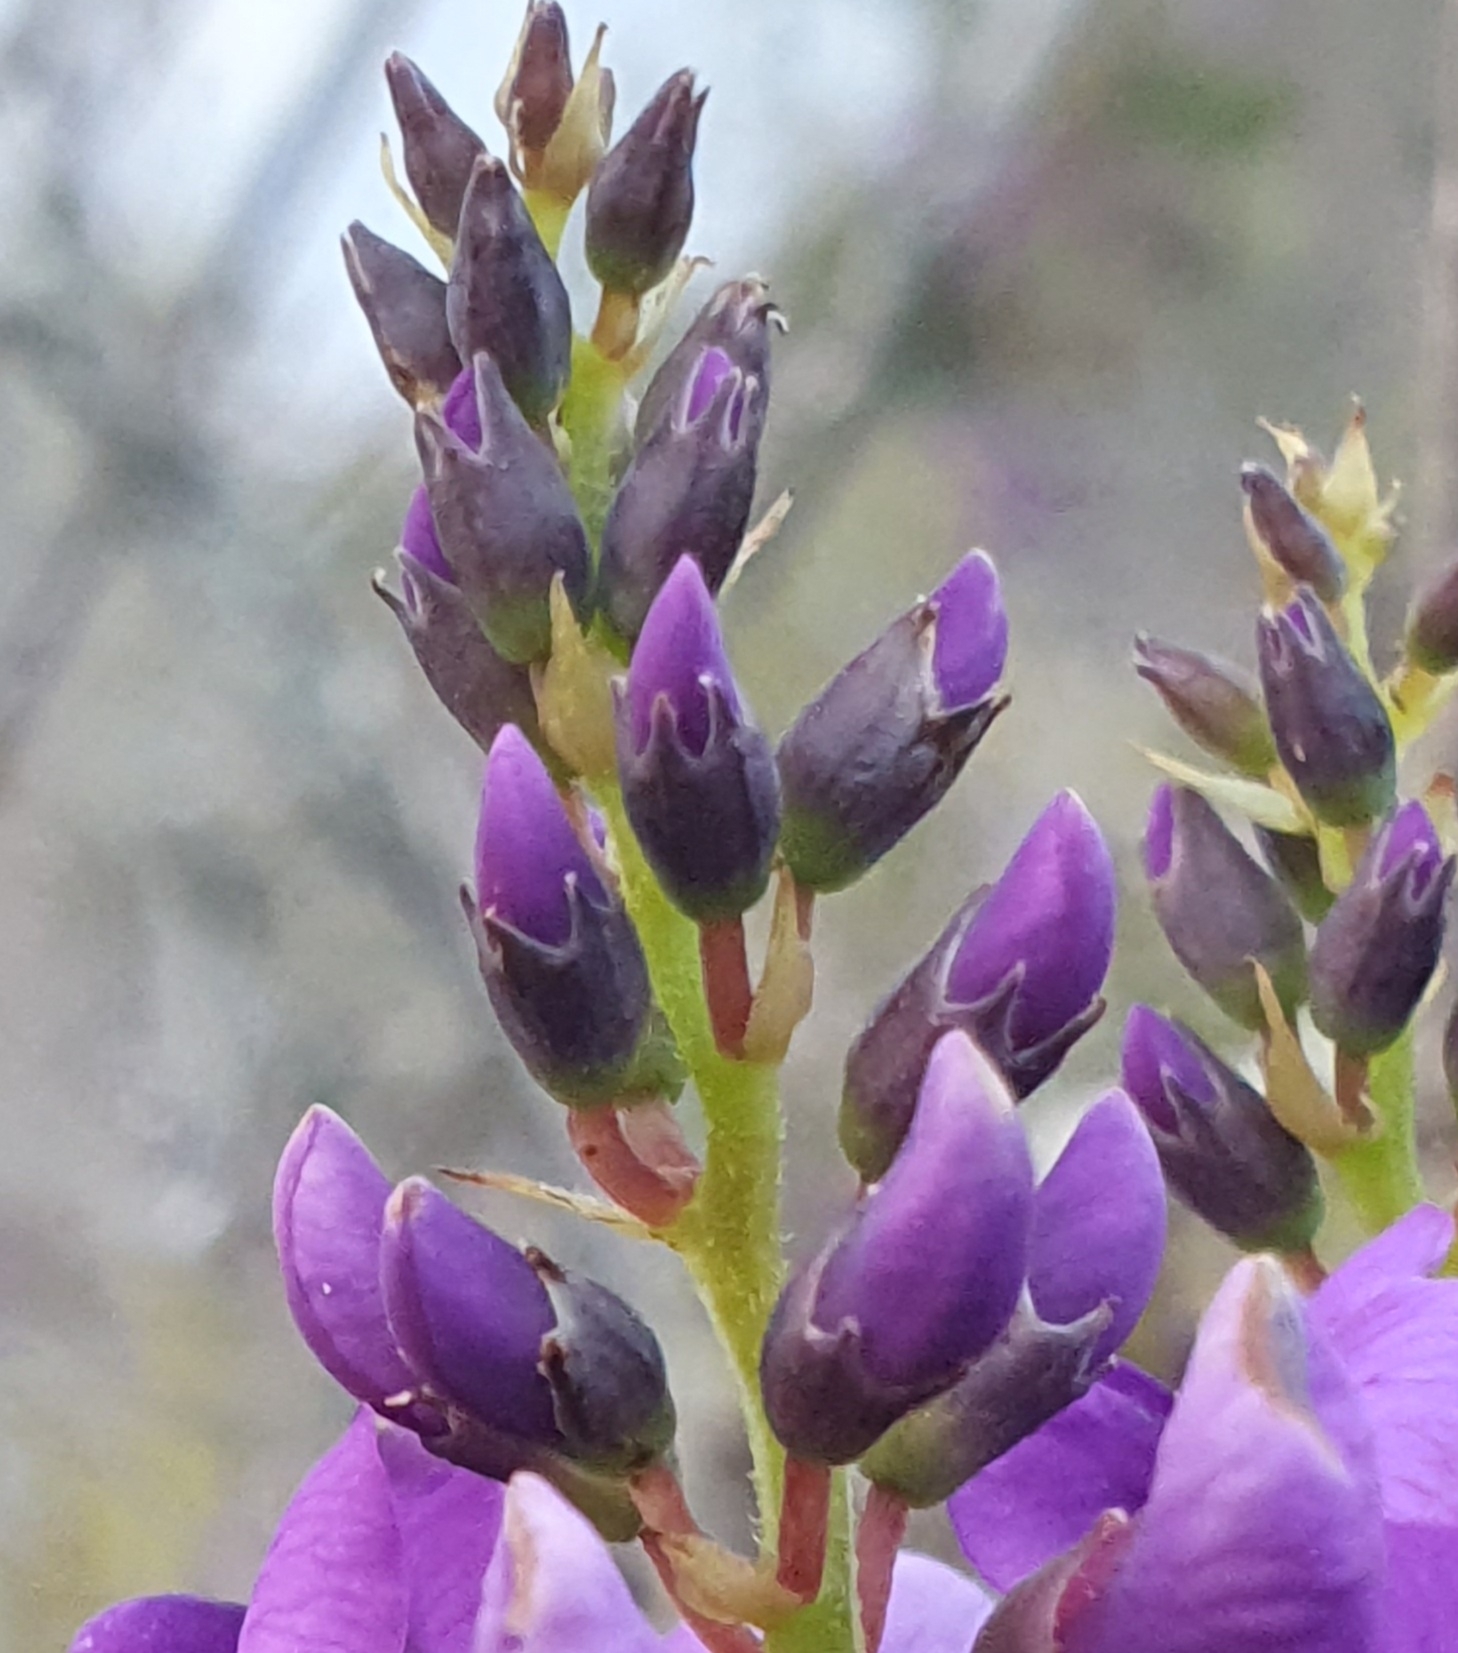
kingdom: Plantae
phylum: Tracheophyta
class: Magnoliopsida
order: Fabales
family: Fabaceae
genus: Hardenbergia
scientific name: Hardenbergia violacea
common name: Coral-pea
